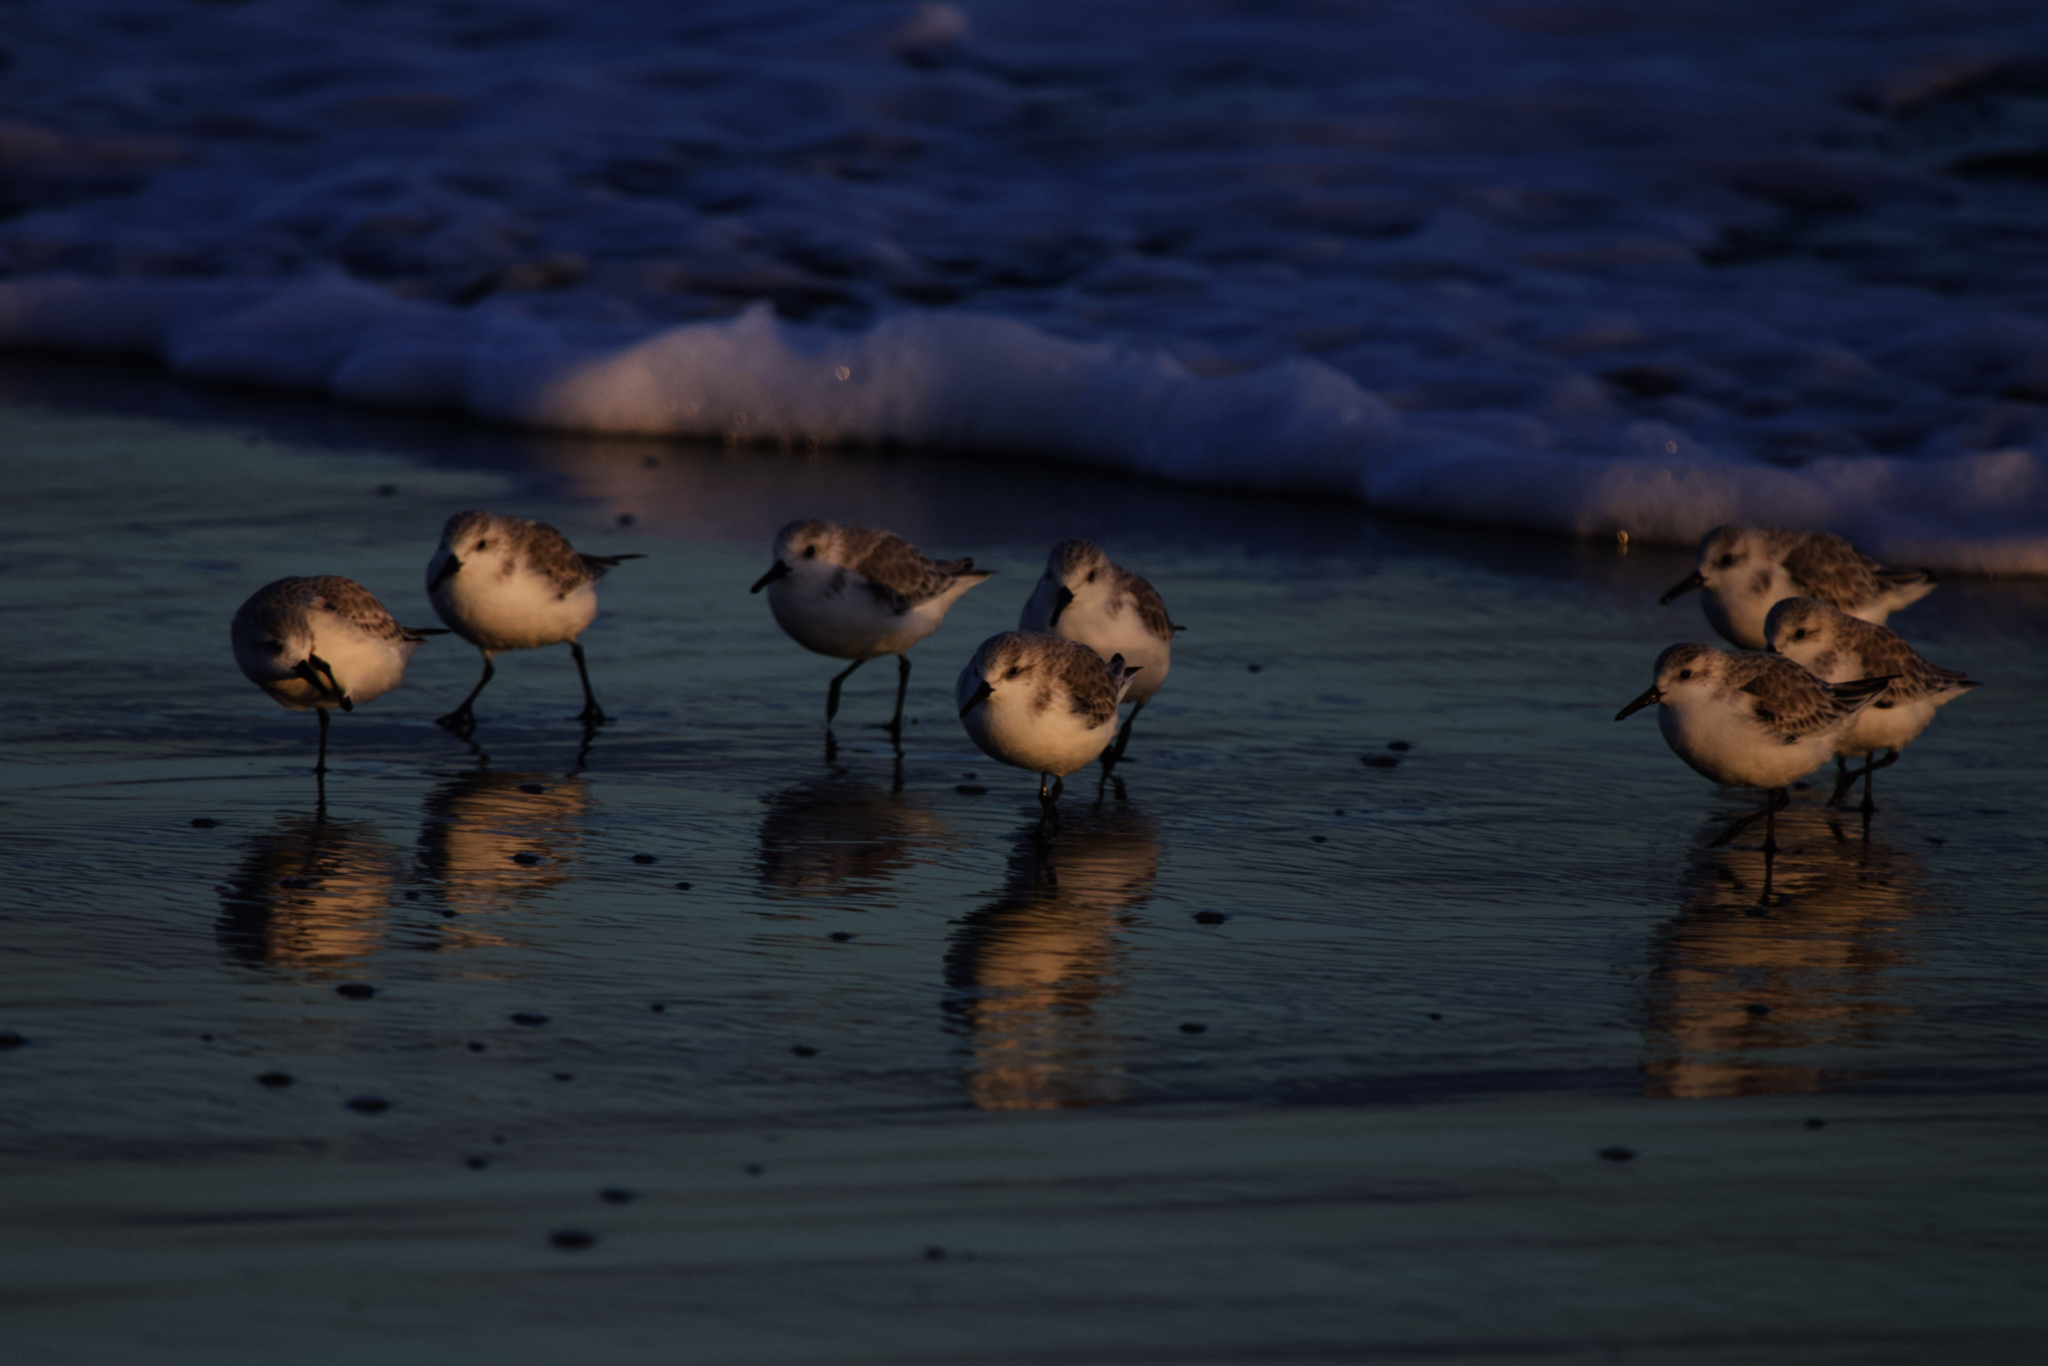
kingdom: Animalia
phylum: Chordata
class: Aves
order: Charadriiformes
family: Scolopacidae
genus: Calidris
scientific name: Calidris alba
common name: Sanderling
